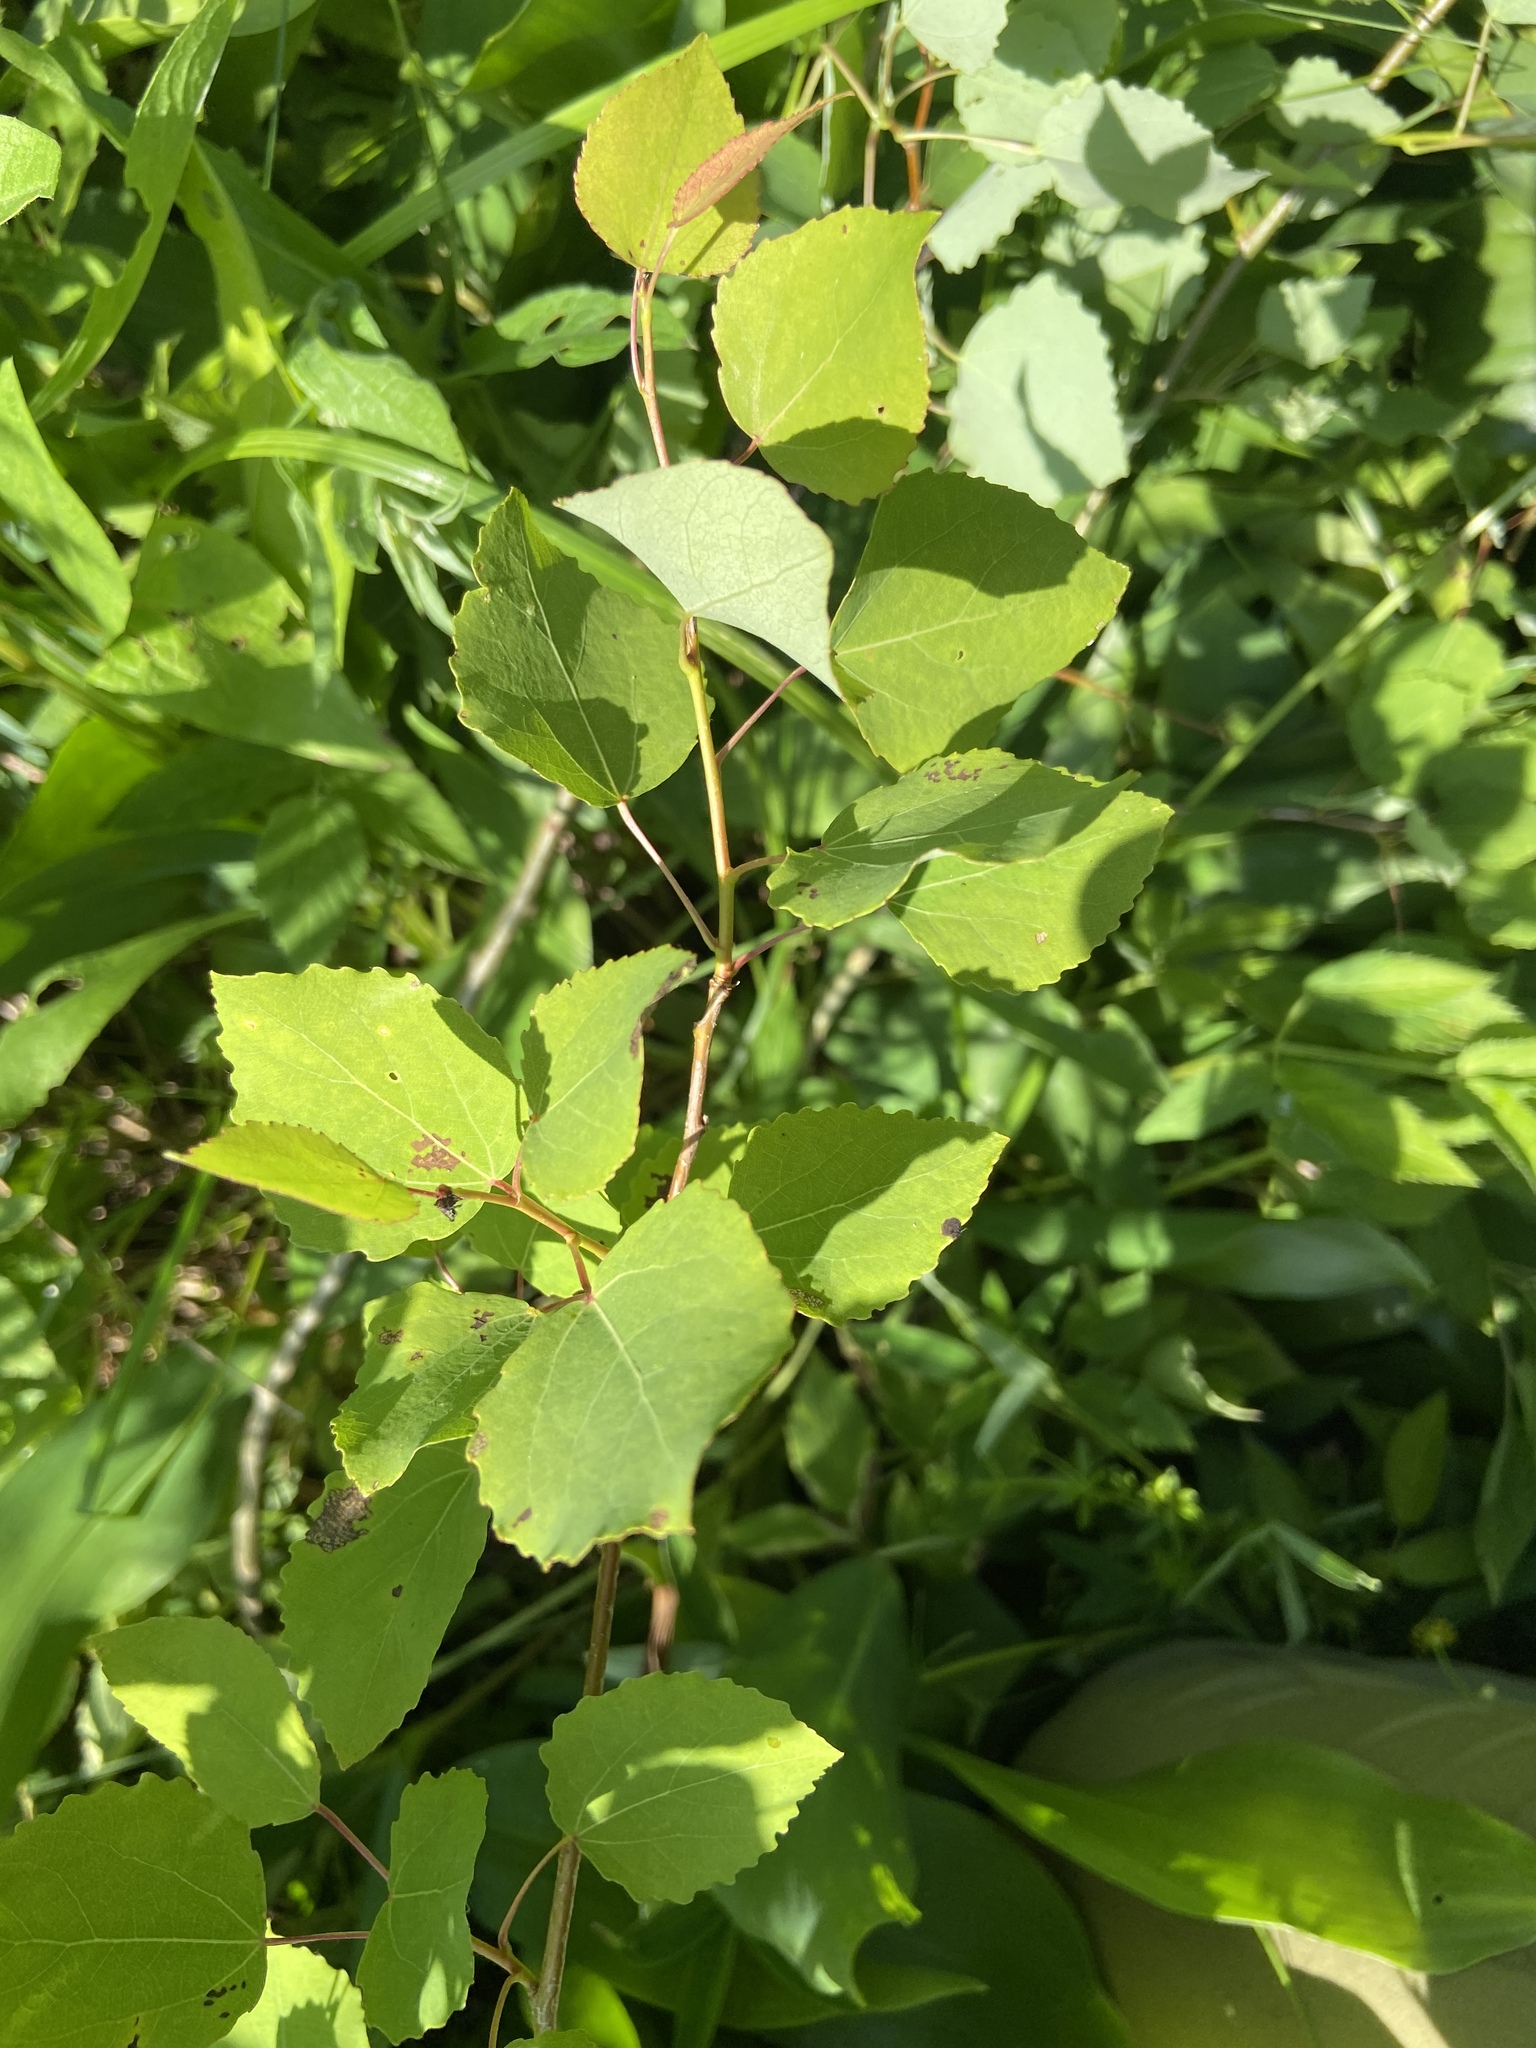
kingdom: Plantae
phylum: Tracheophyta
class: Magnoliopsida
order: Malpighiales
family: Salicaceae
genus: Populus
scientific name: Populus tremula
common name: European aspen
